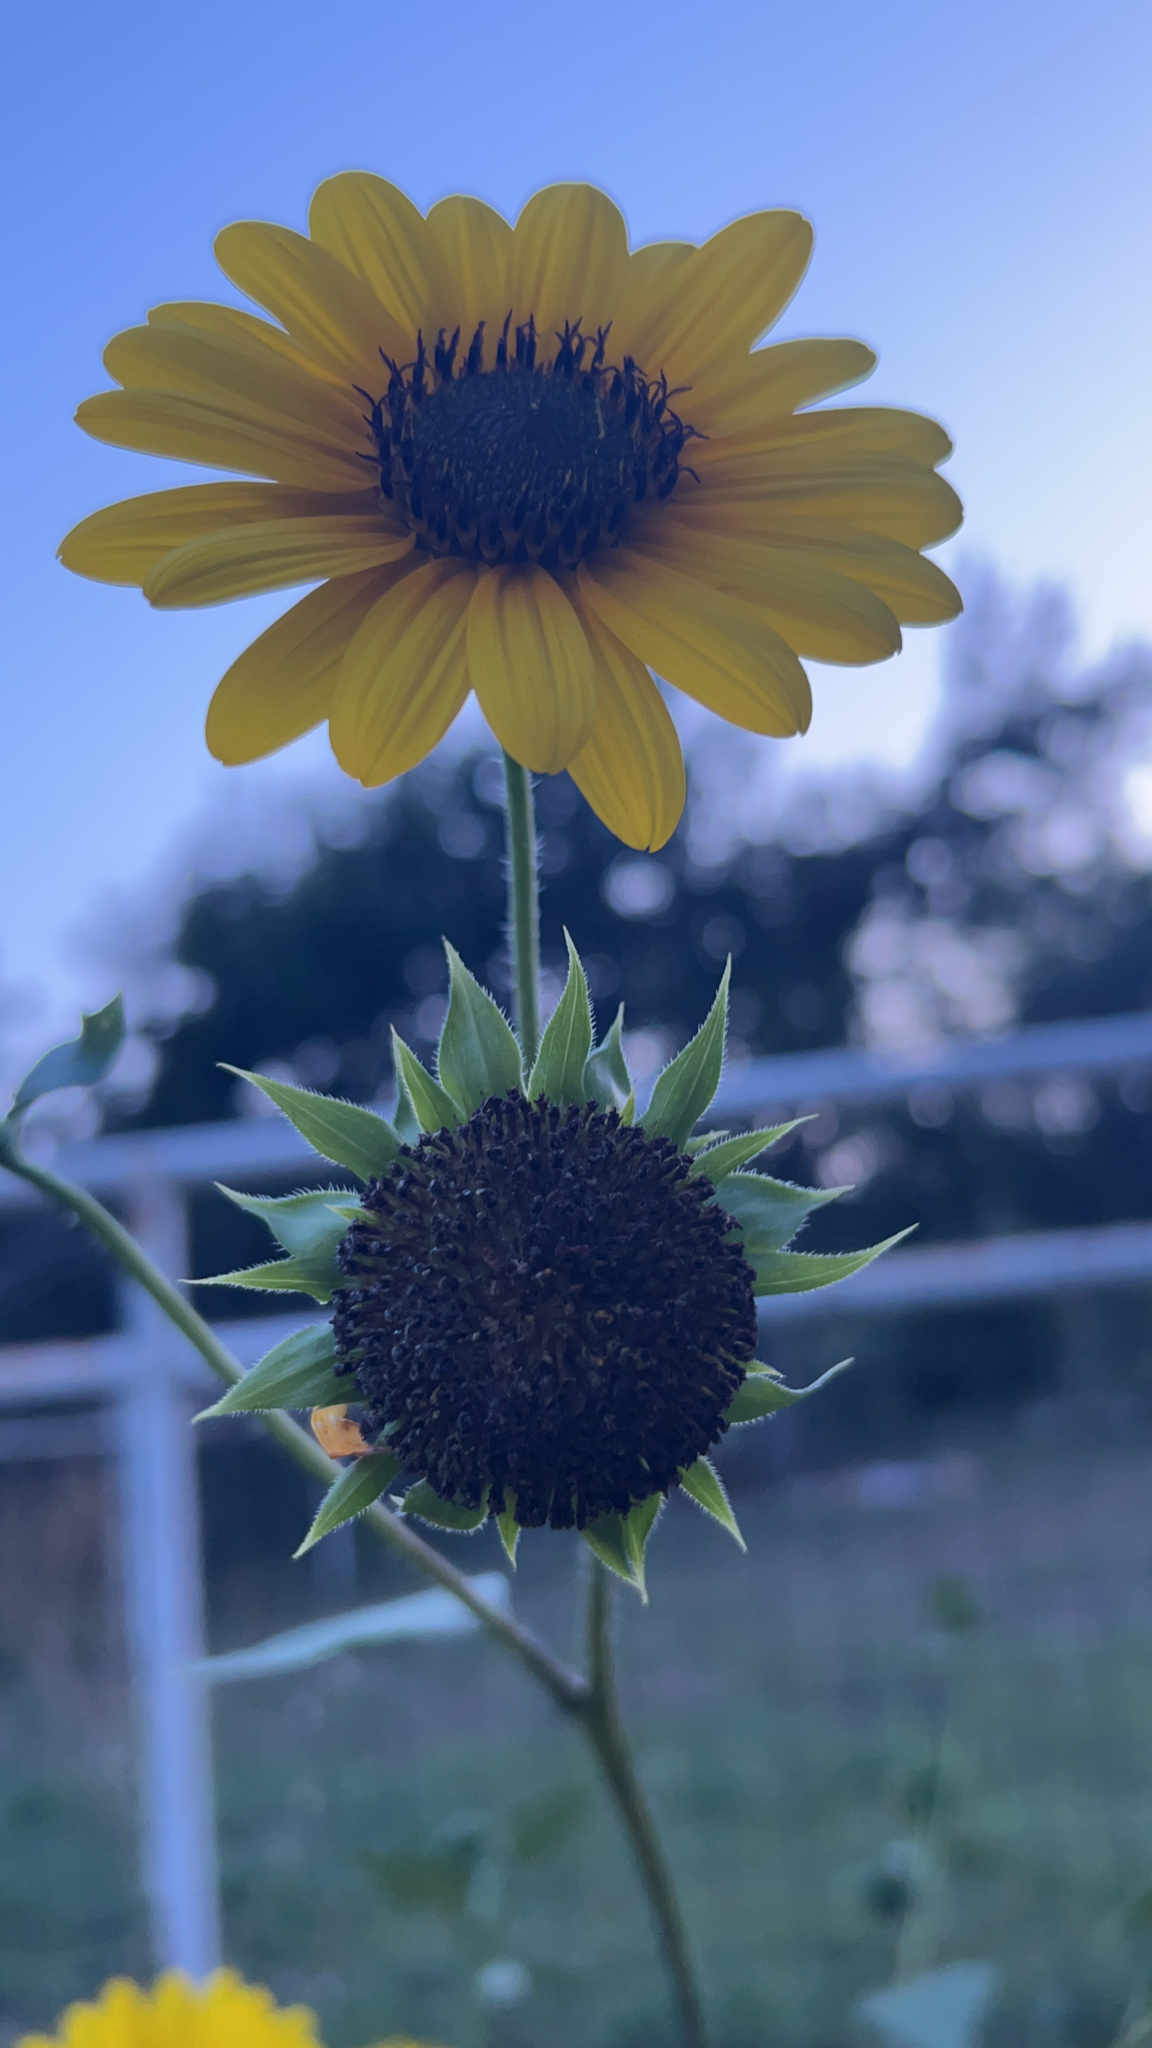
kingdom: Plantae
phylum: Tracheophyta
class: Magnoliopsida
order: Asterales
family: Asteraceae
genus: Helianthus
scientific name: Helianthus annuus
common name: Sunflower
